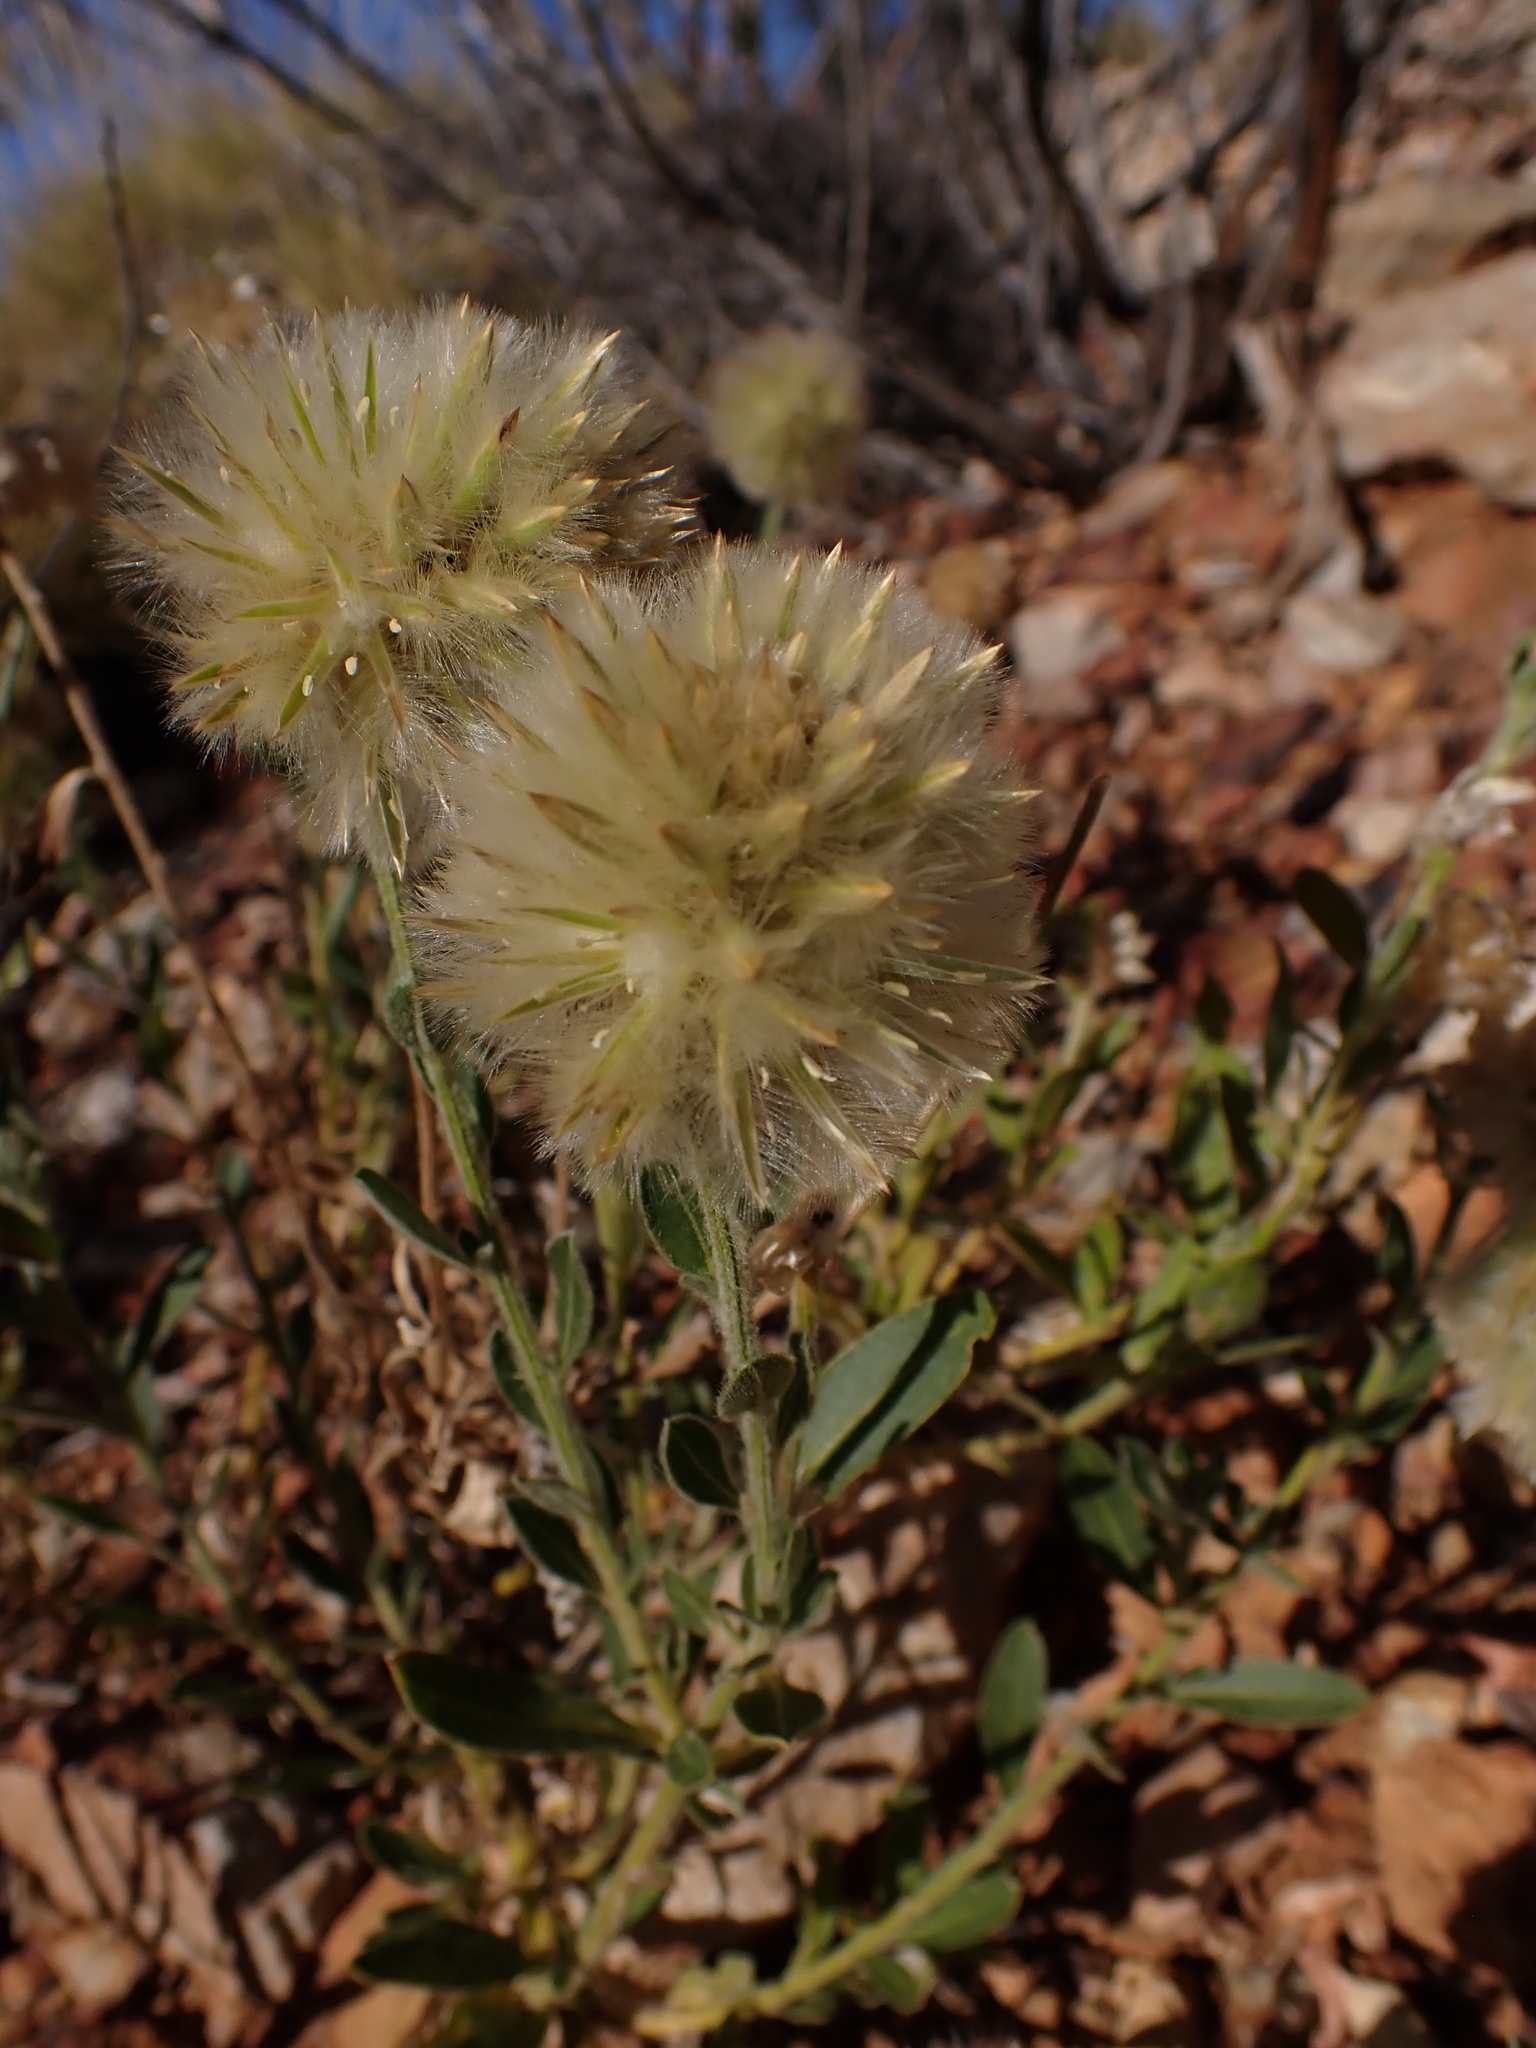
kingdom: Plantae
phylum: Tracheophyta
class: Magnoliopsida
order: Caryophyllales
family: Amaranthaceae
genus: Ptilotus
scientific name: Ptilotus clementii
